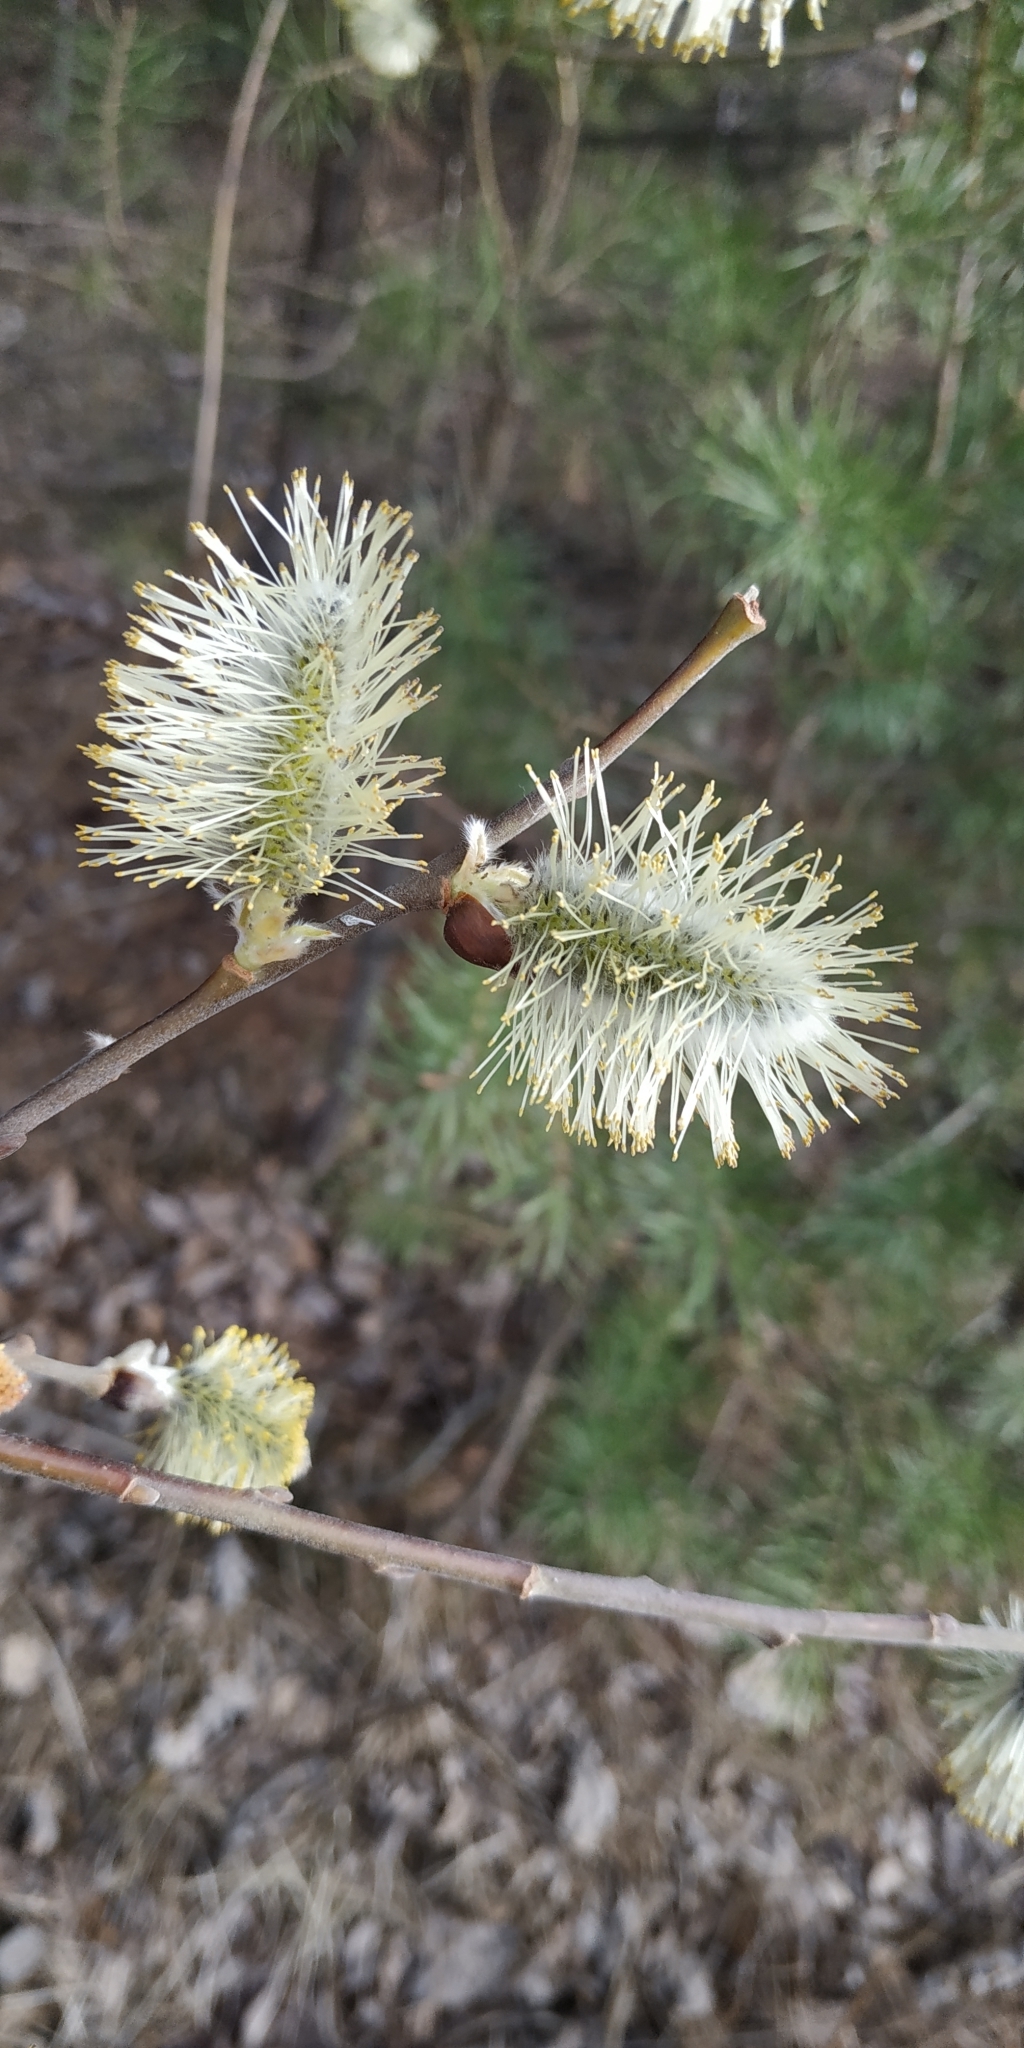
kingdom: Plantae
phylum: Tracheophyta
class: Magnoliopsida
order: Malpighiales
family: Salicaceae
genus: Salix
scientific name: Salix caprea
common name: Goat willow
